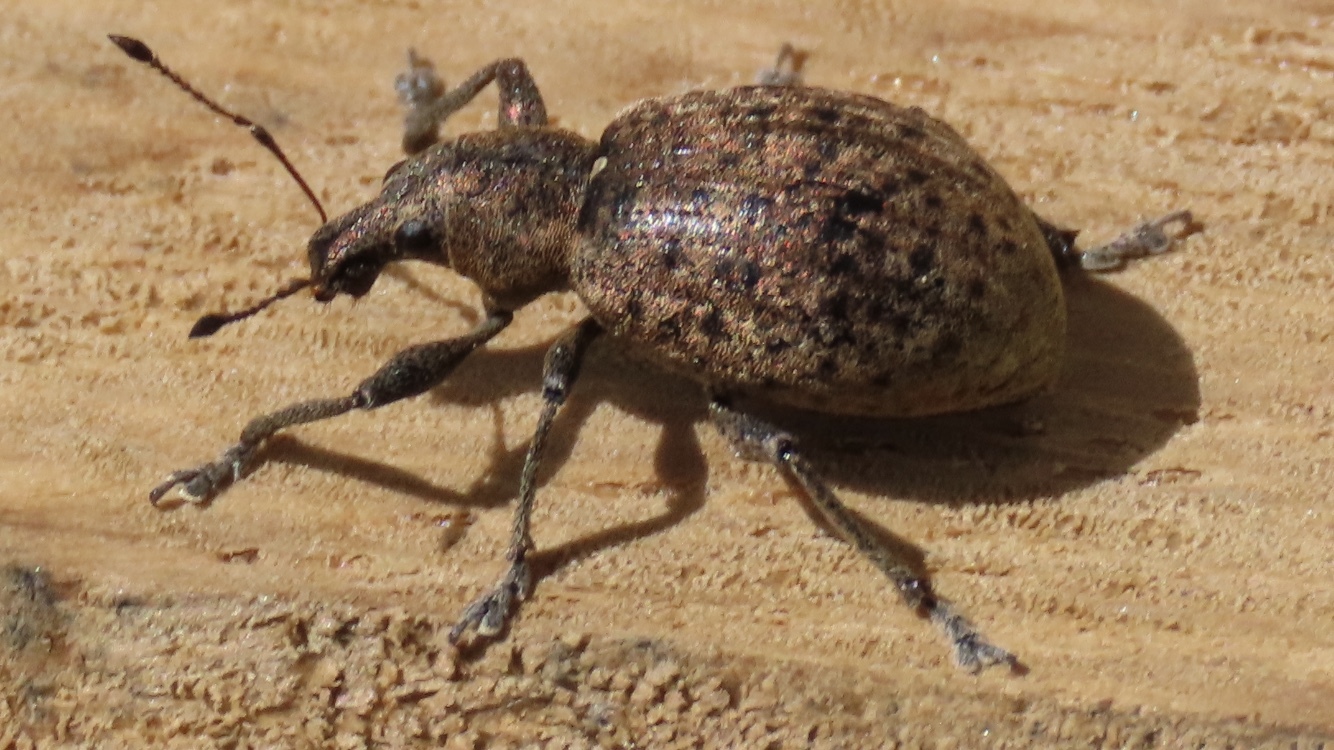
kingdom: Animalia
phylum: Arthropoda
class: Insecta
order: Coleoptera
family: Curculionidae
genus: Liophloeus
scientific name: Liophloeus tessulatus
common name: Weevil
